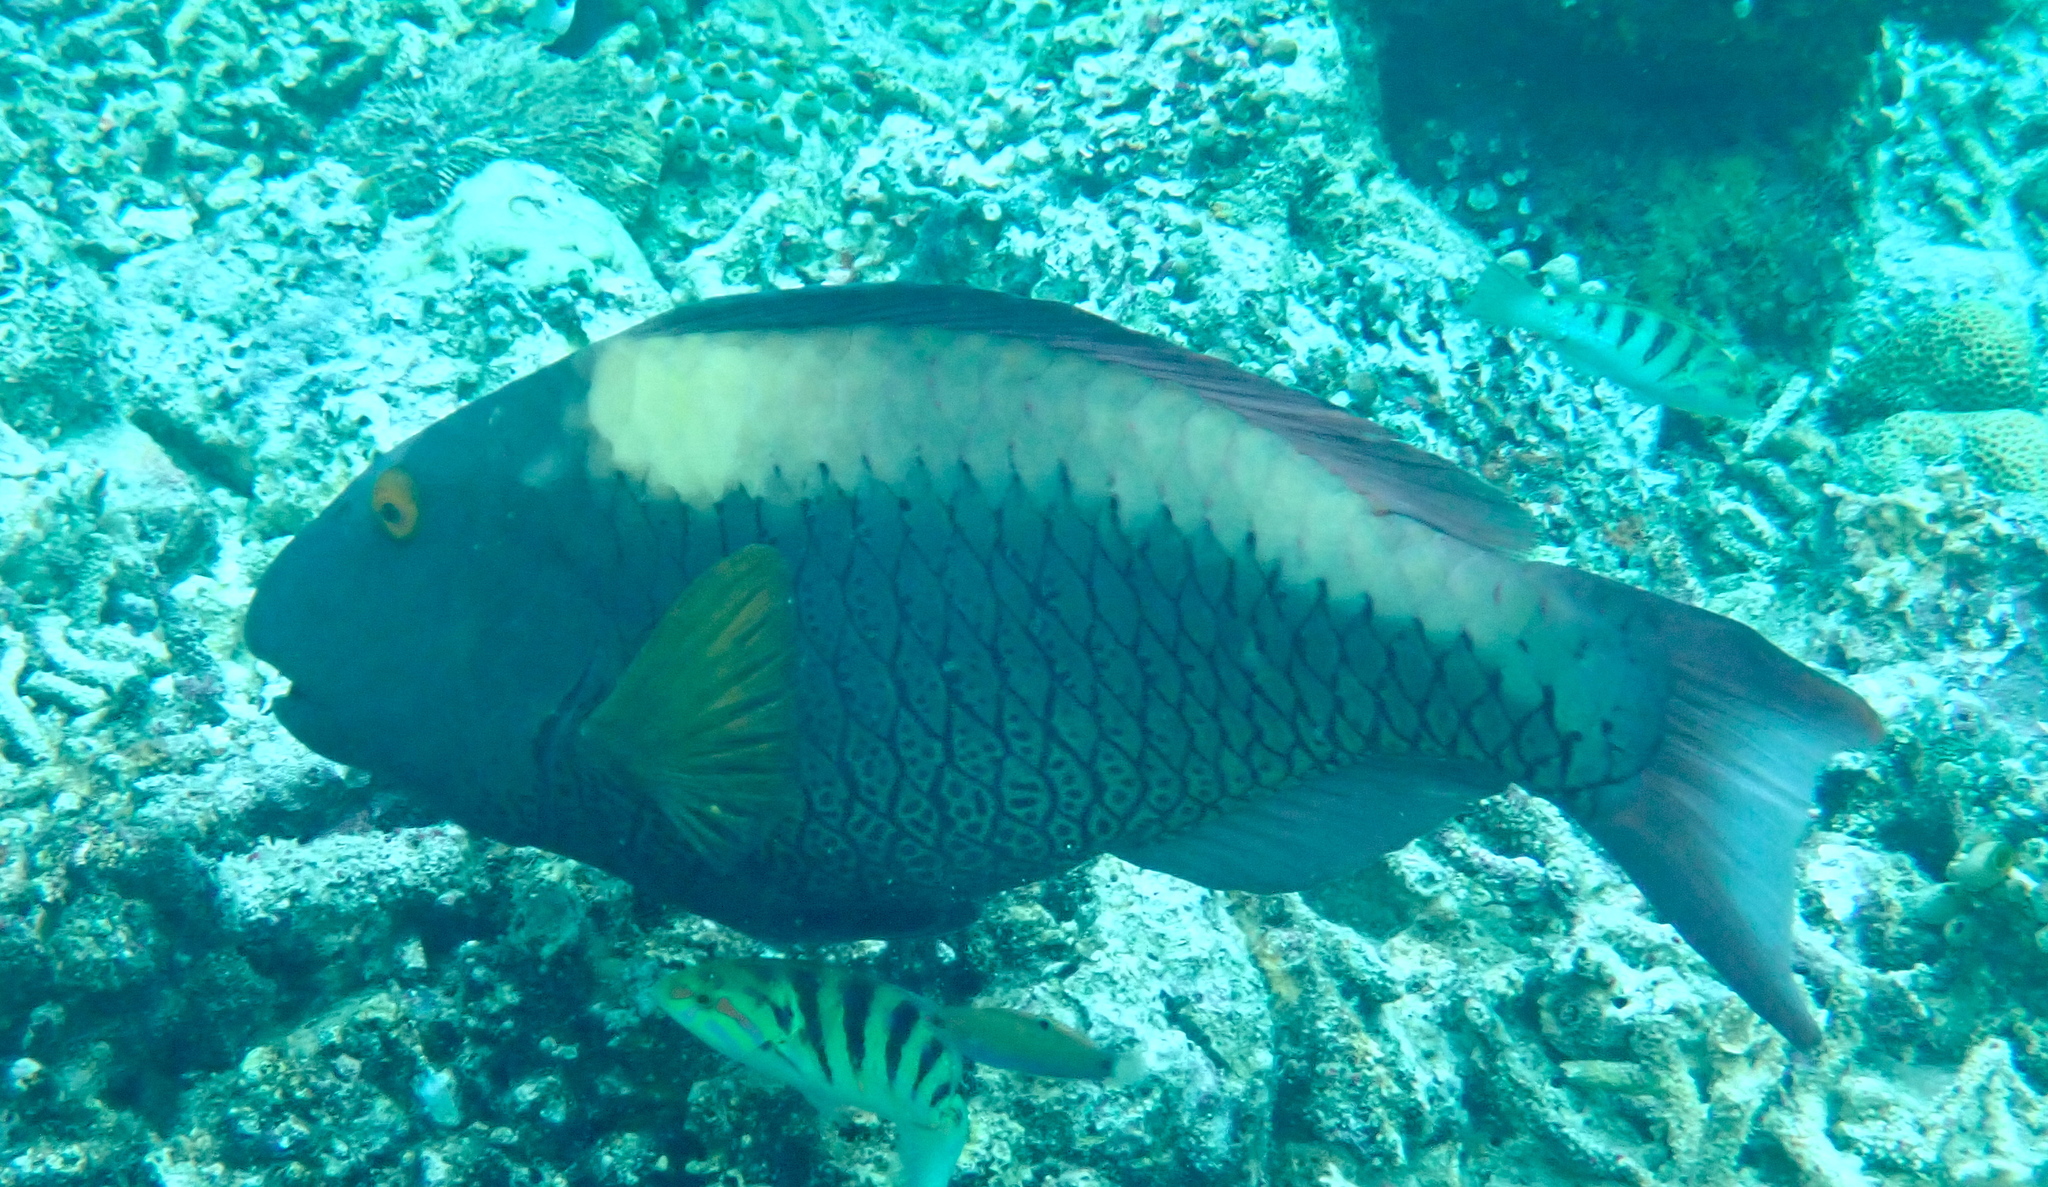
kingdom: Animalia
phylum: Chordata
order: Perciformes
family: Scaridae
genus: Cetoscarus
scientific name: Cetoscarus ocellatus
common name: Bicolor parrotfish
